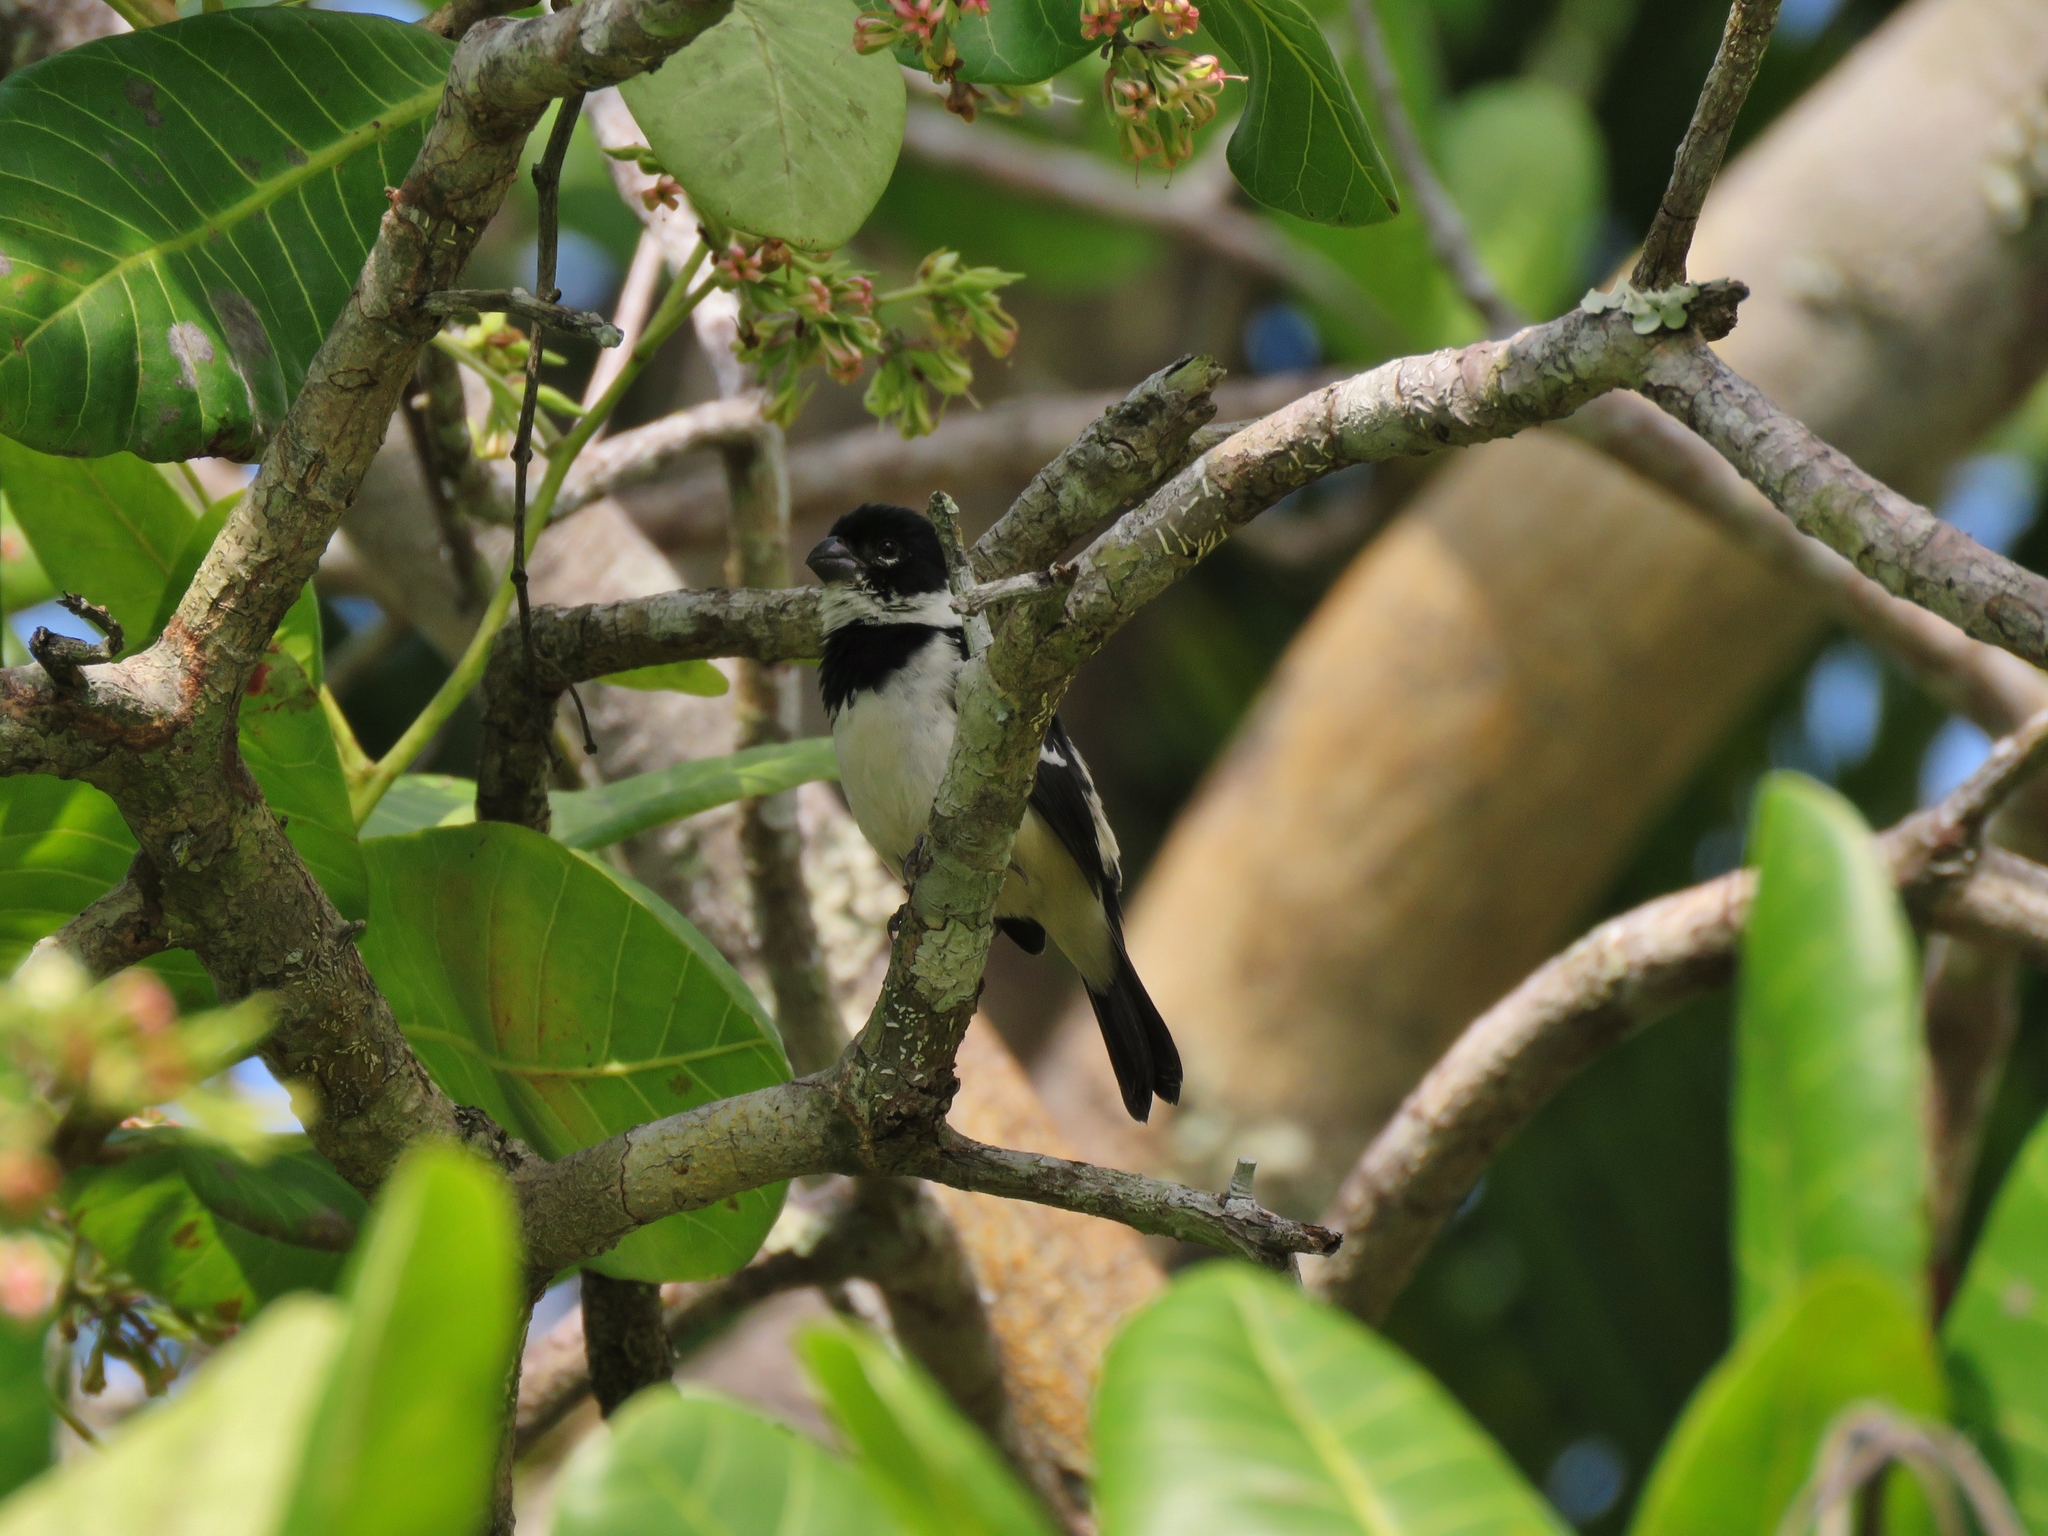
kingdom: Animalia
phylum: Chordata
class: Aves
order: Passeriformes
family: Thraupidae
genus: Sporophila
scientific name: Sporophila morelleti
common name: Morelet's seedeater
